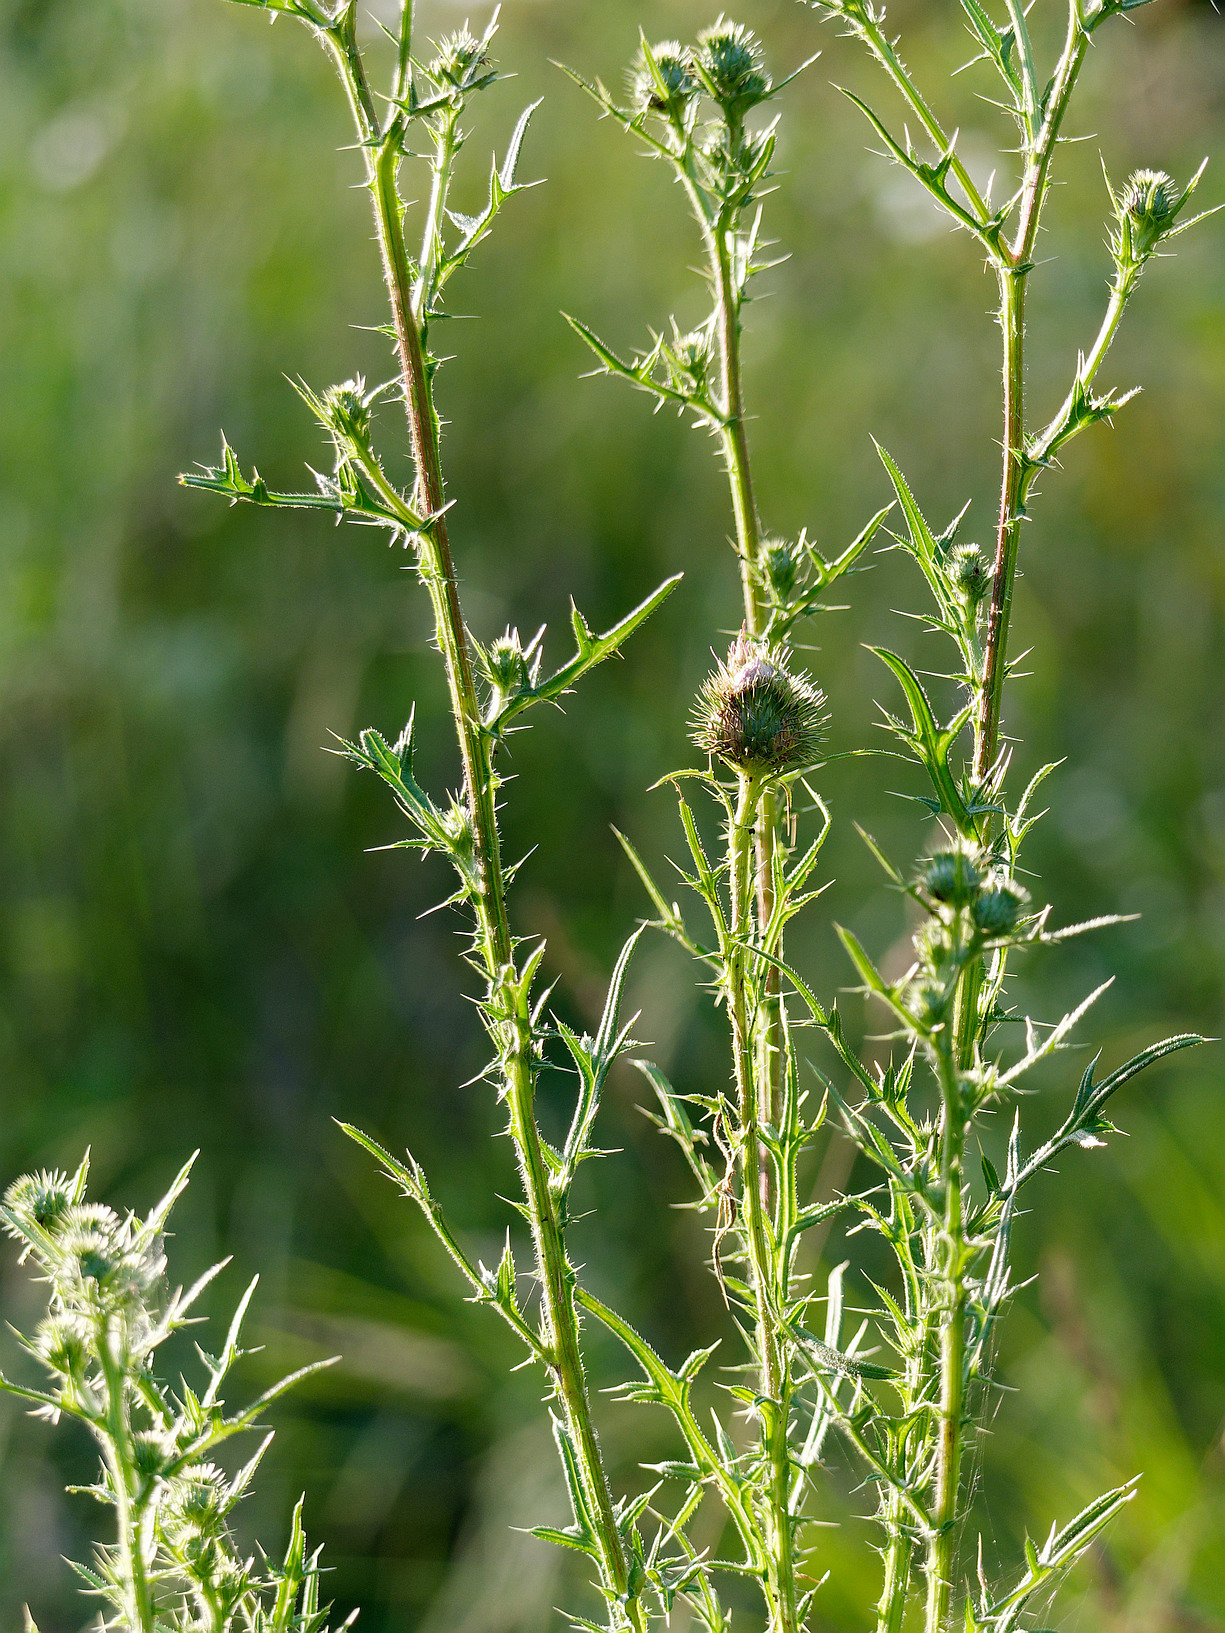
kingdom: Plantae
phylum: Tracheophyta
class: Magnoliopsida
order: Asterales
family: Asteraceae
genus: Cirsium
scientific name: Cirsium vulgare
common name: Bull thistle
